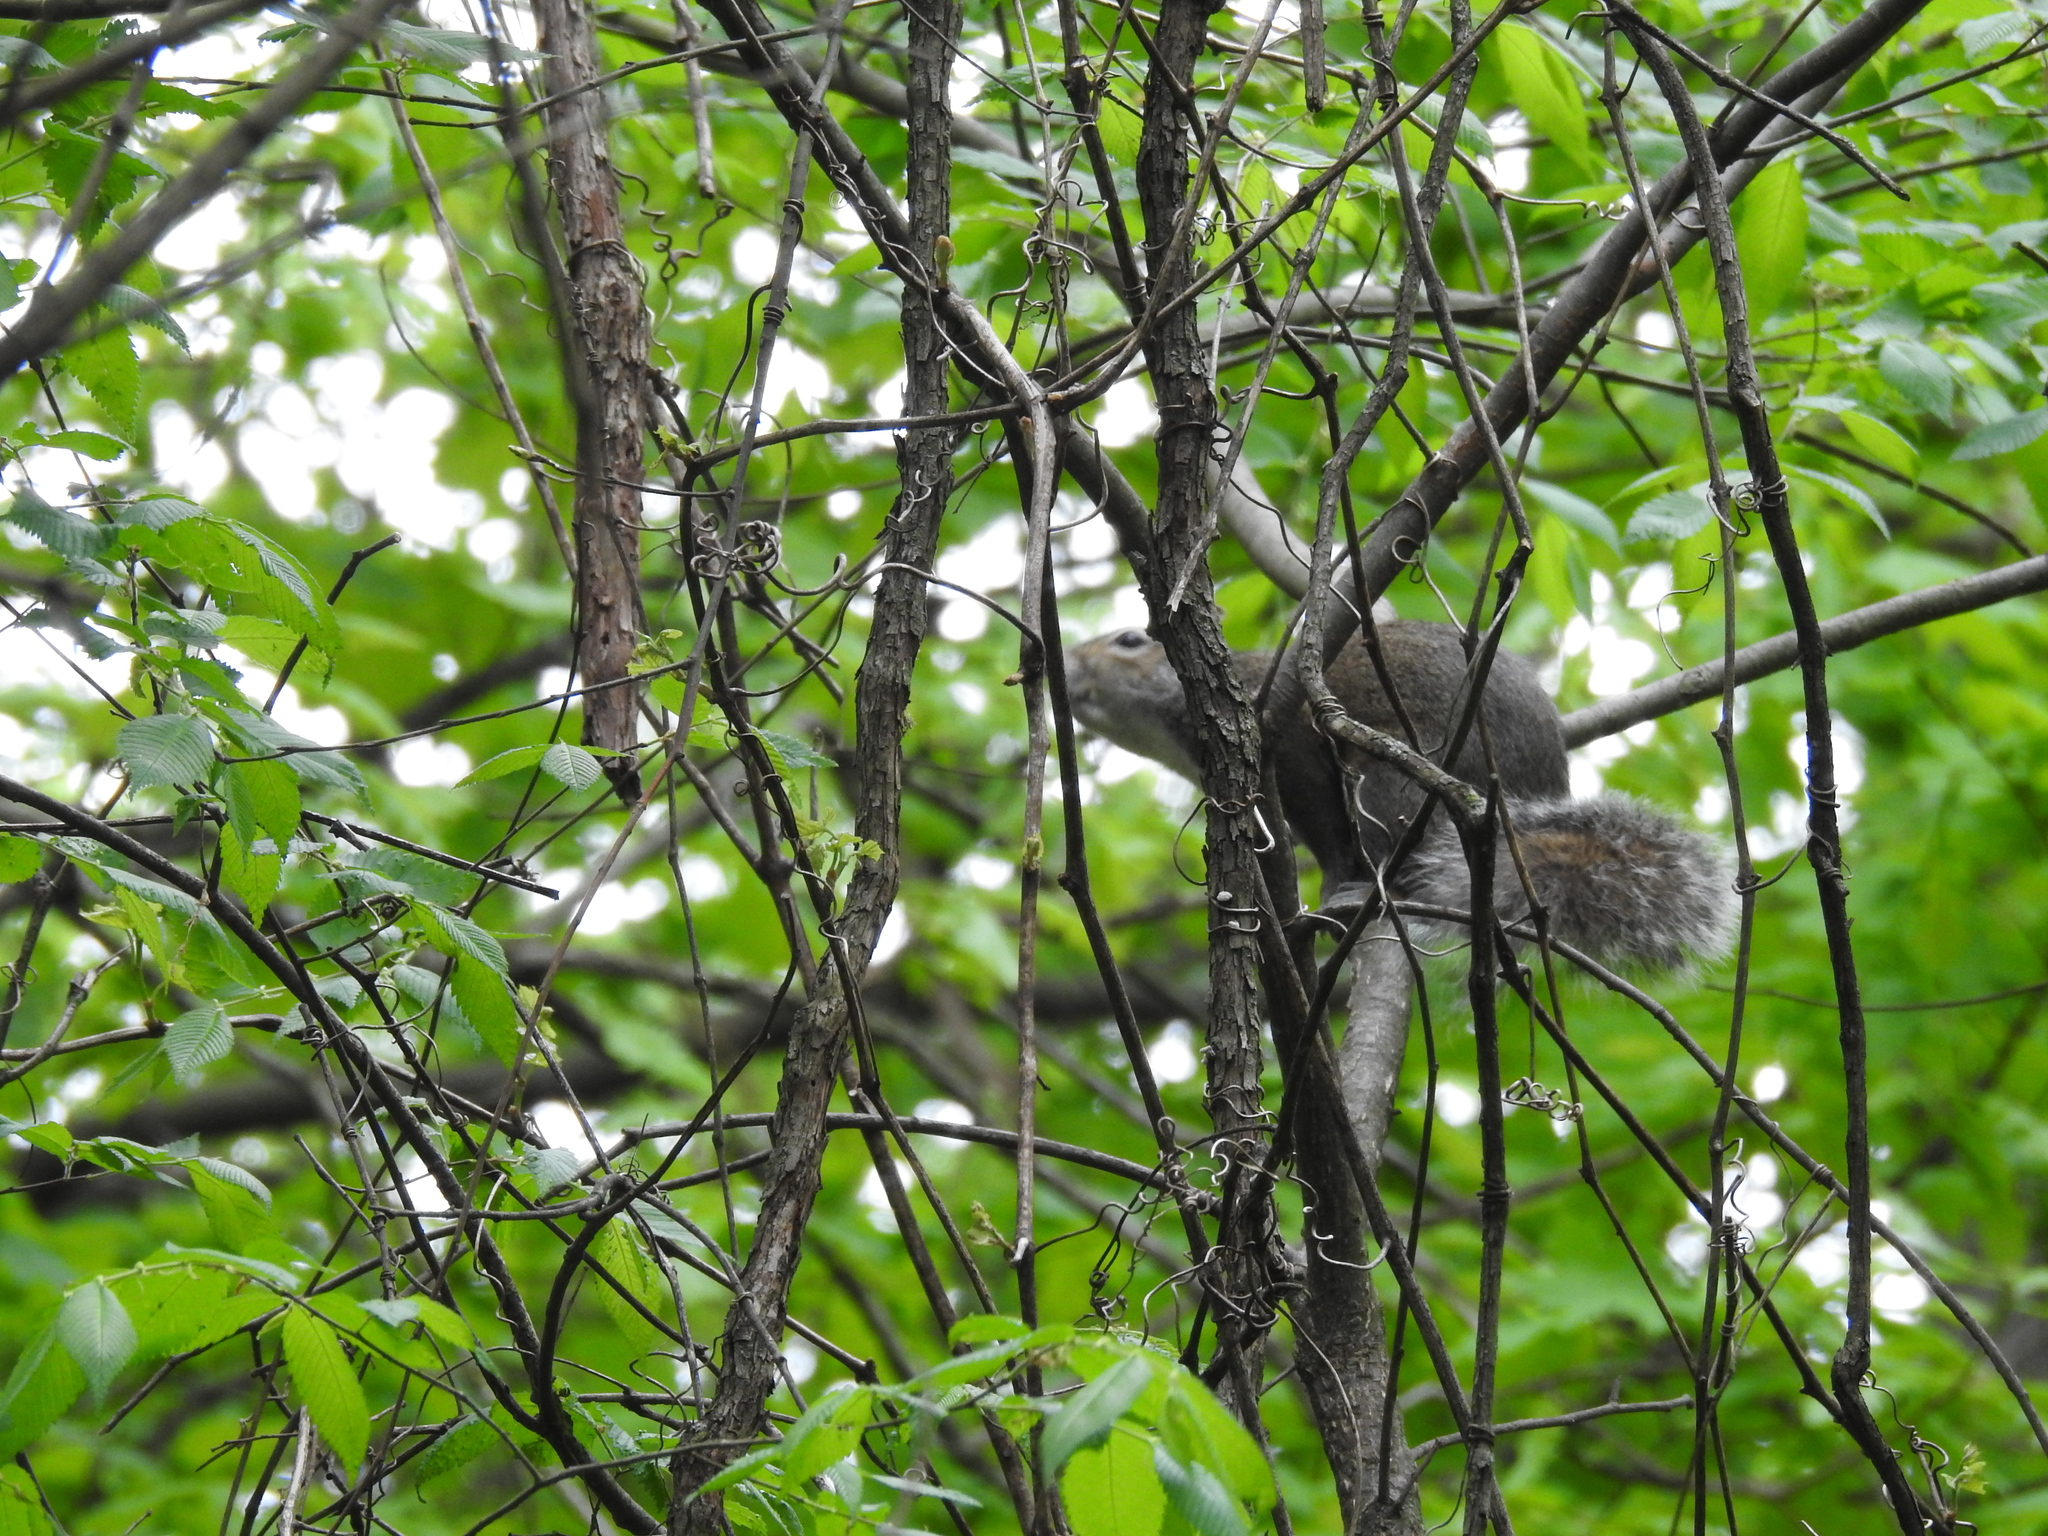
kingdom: Animalia
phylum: Chordata
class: Mammalia
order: Rodentia
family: Sciuridae
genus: Sciurus
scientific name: Sciurus carolinensis
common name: Eastern gray squirrel
